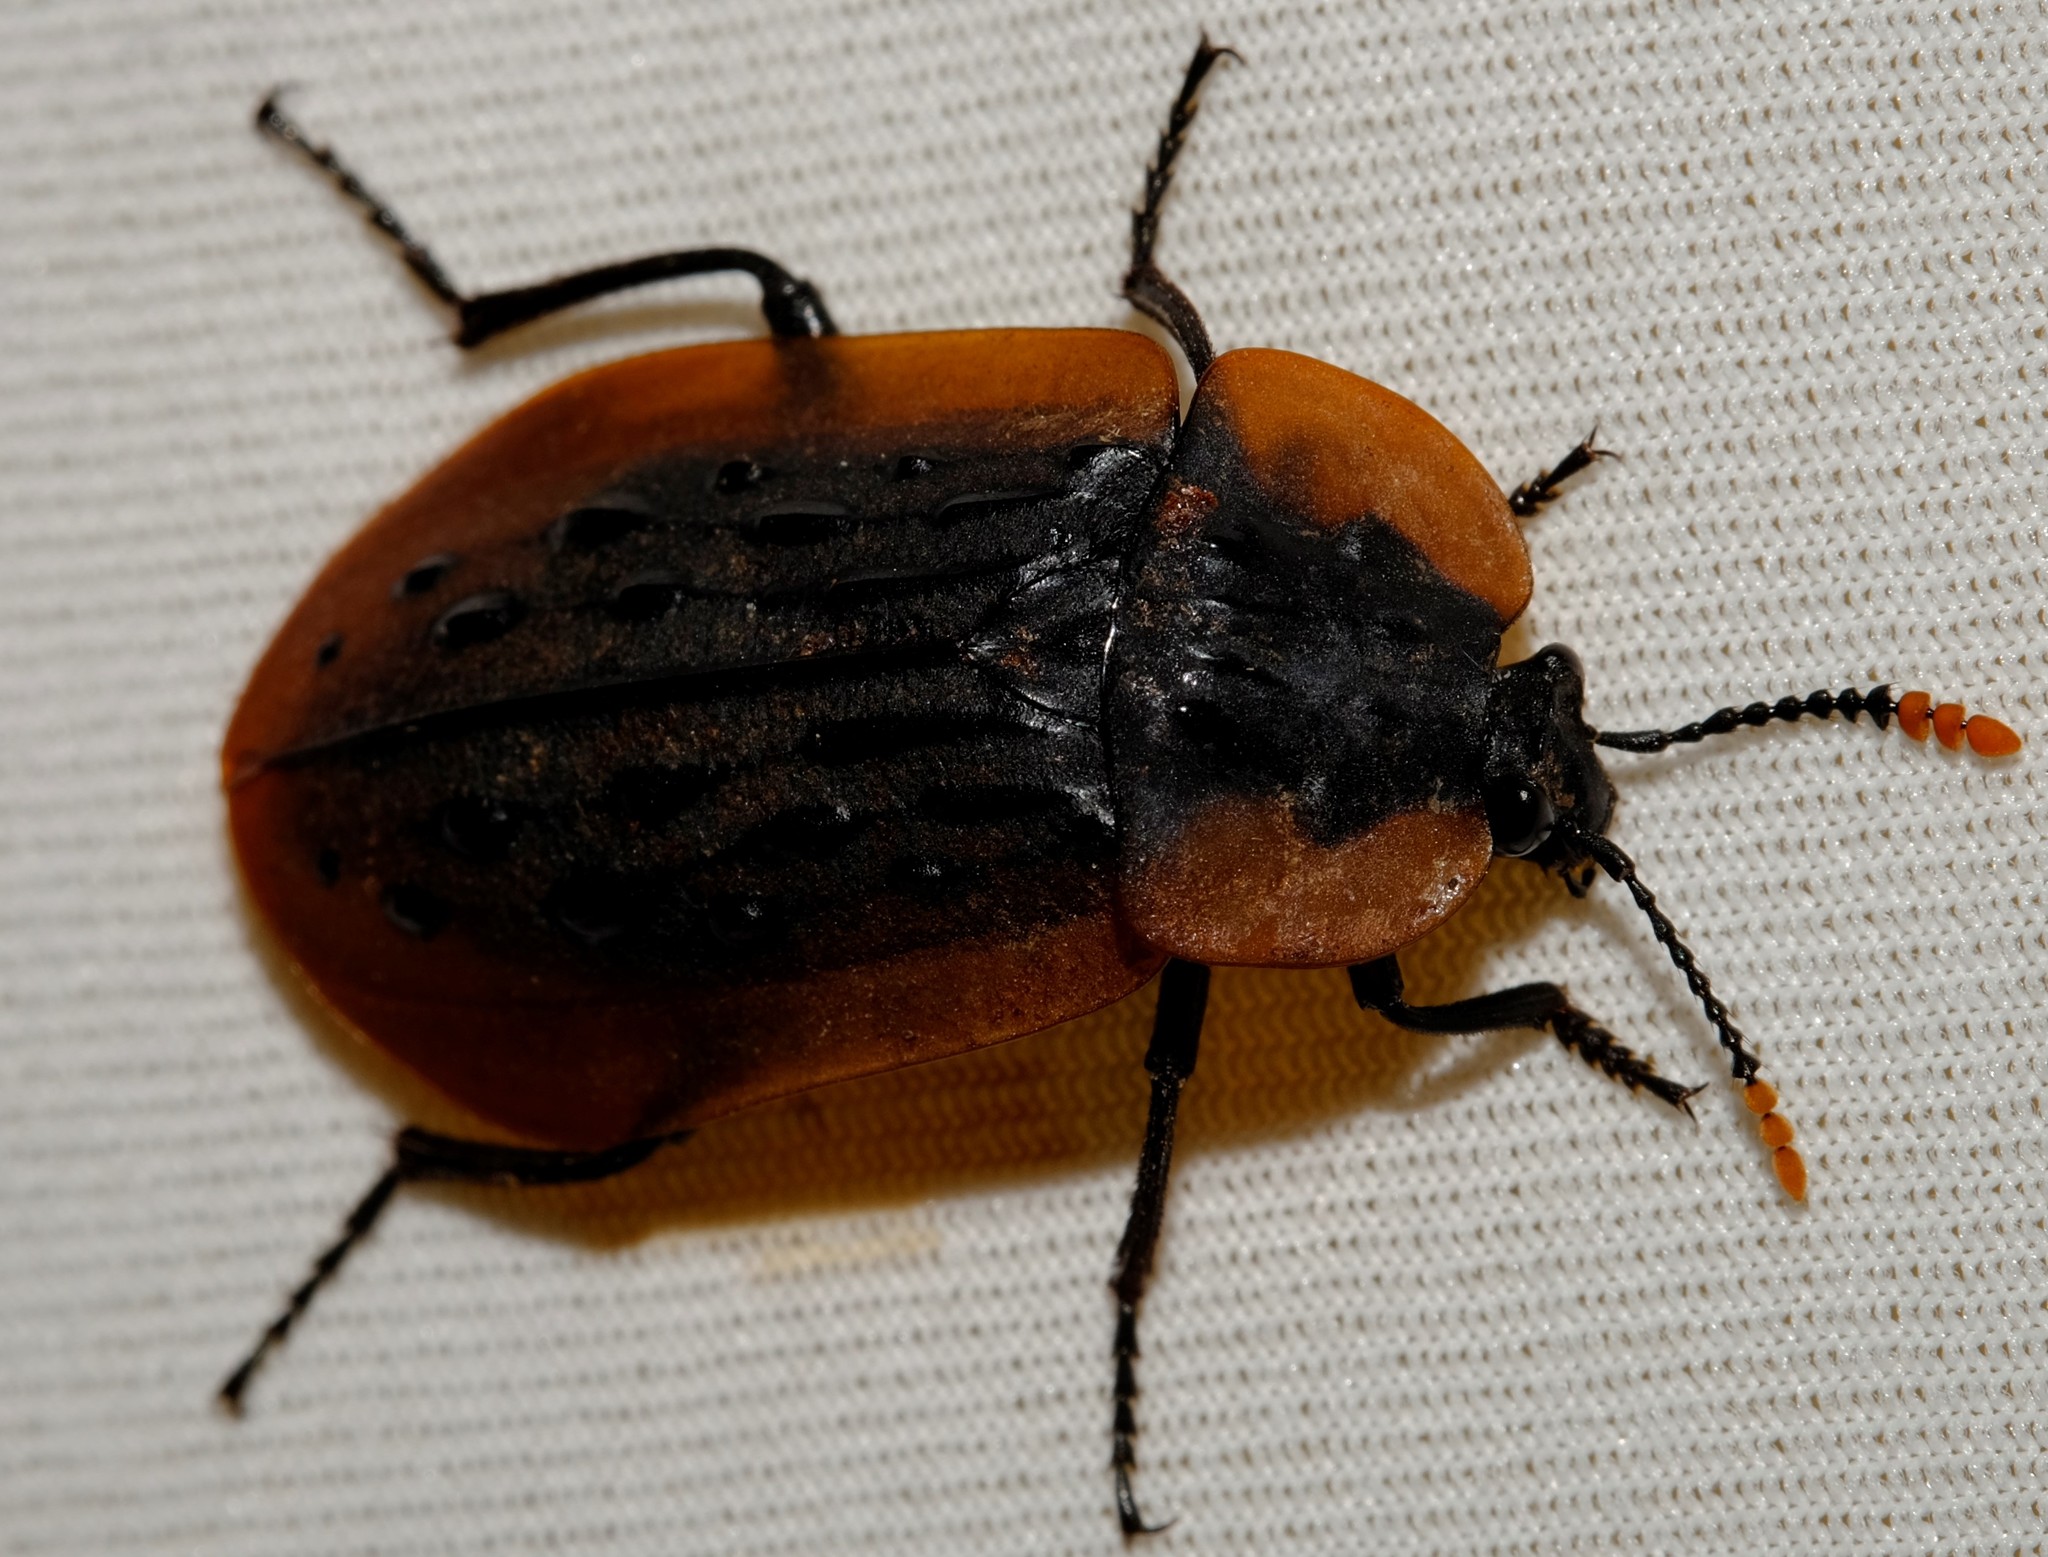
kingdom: Animalia
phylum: Arthropoda
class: Insecta
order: Coleoptera
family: Staphylinidae
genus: Ptomaphila
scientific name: Ptomaphila lacrymosa
